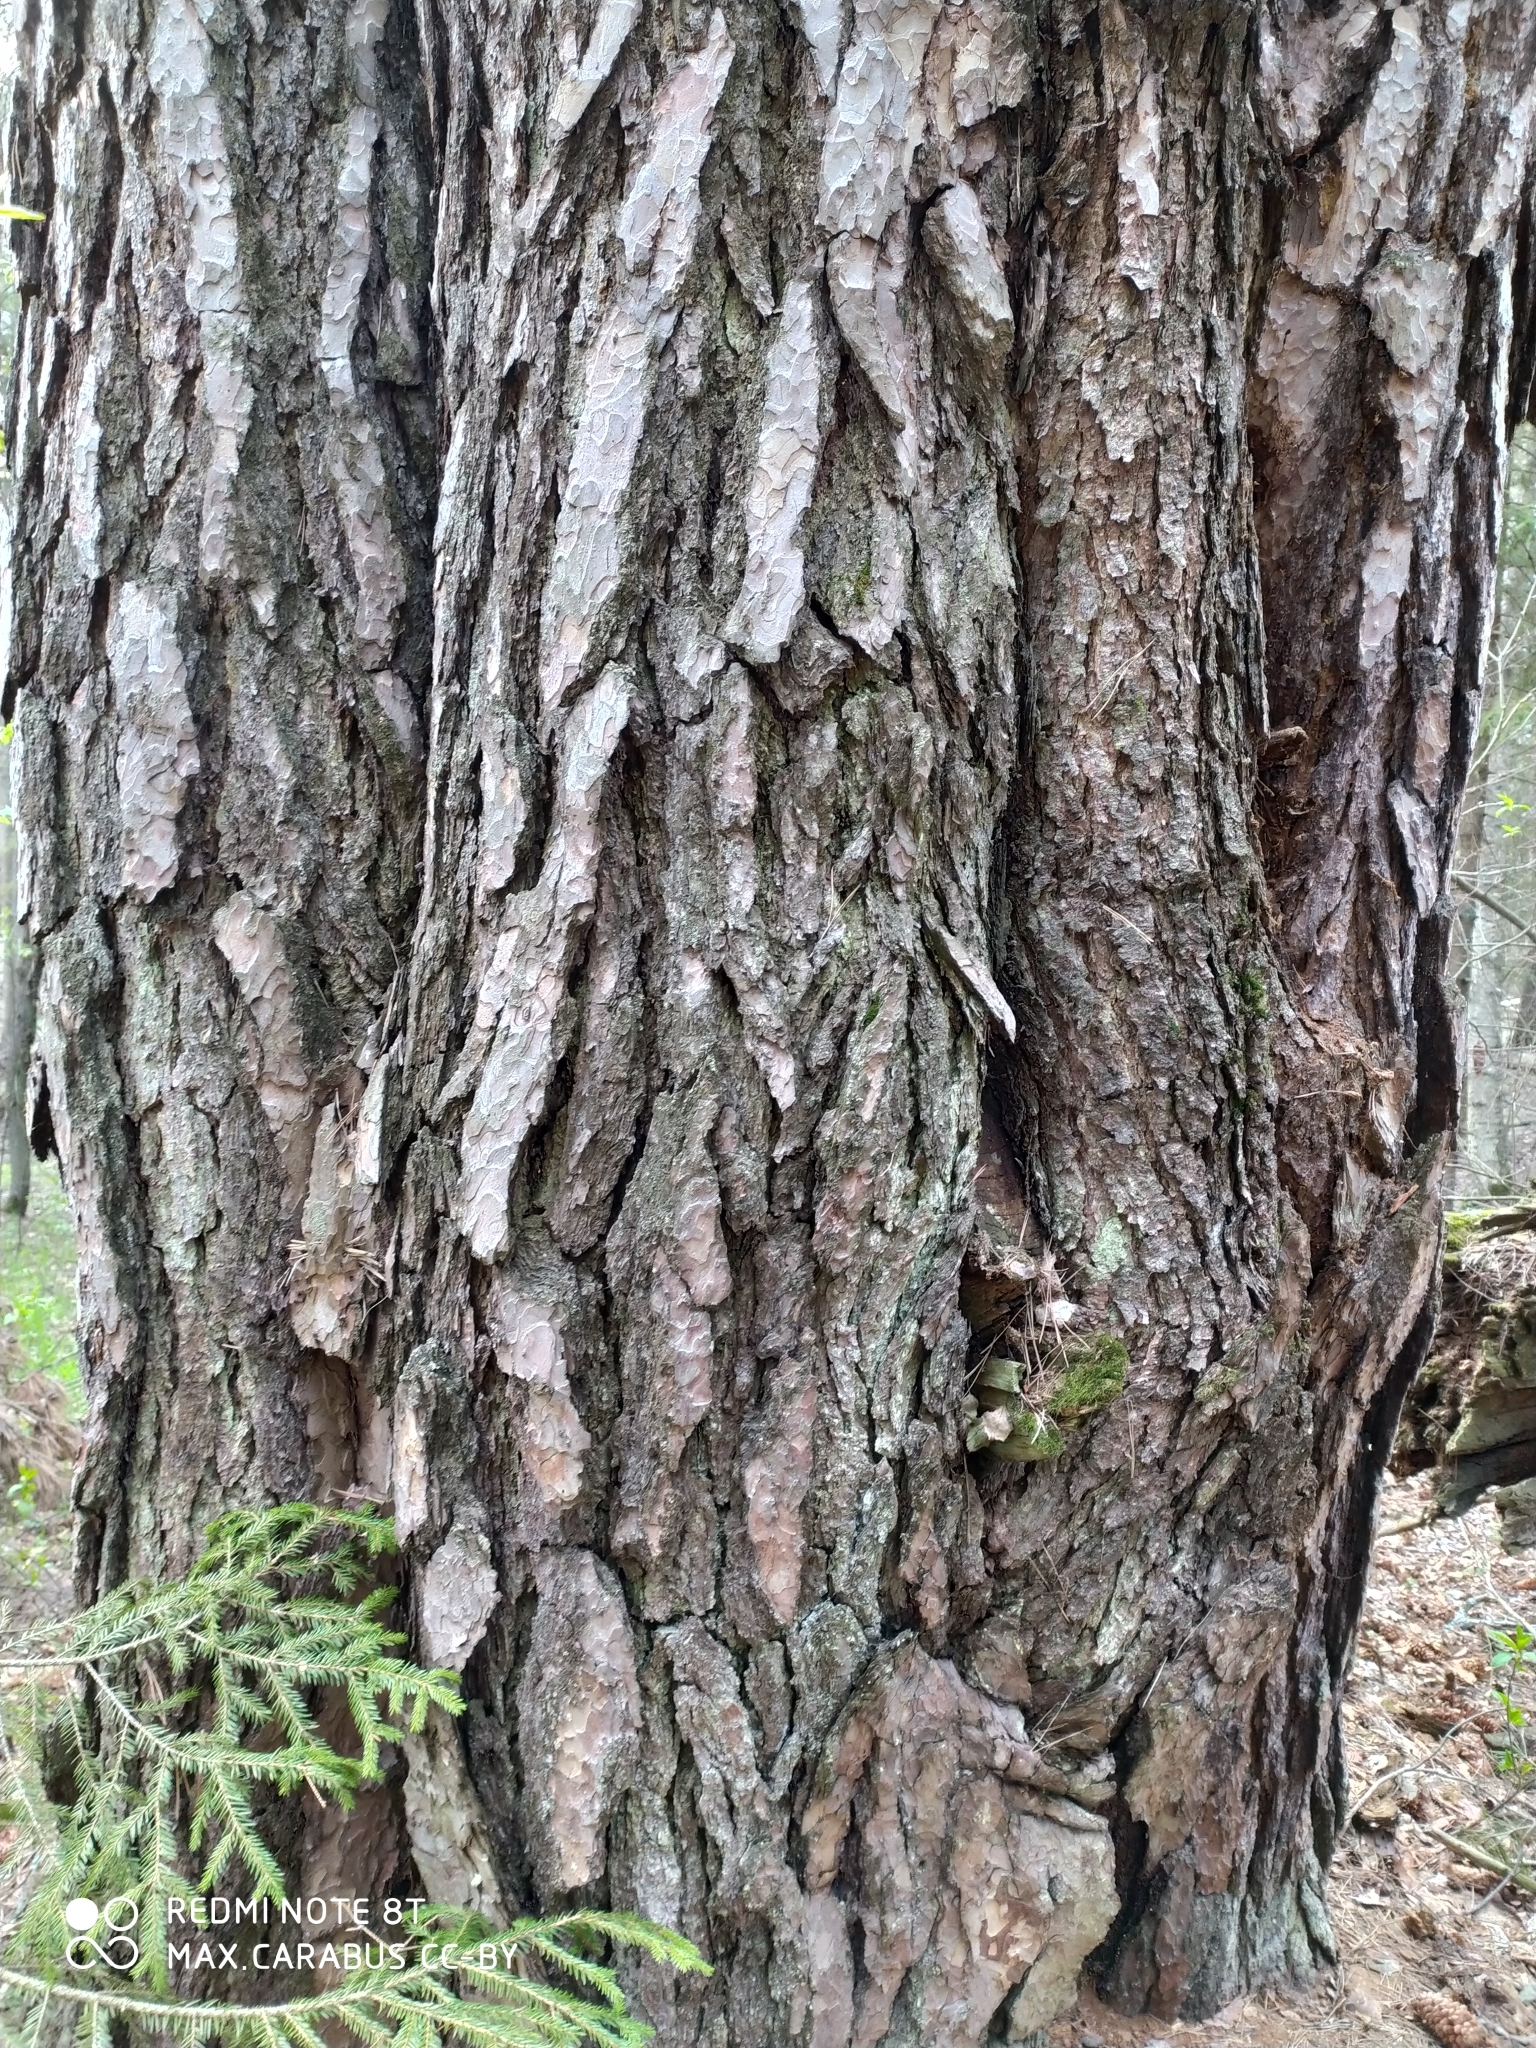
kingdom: Plantae
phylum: Tracheophyta
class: Pinopsida
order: Pinales
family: Pinaceae
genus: Pinus
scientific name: Pinus sylvestris
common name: Scots pine
